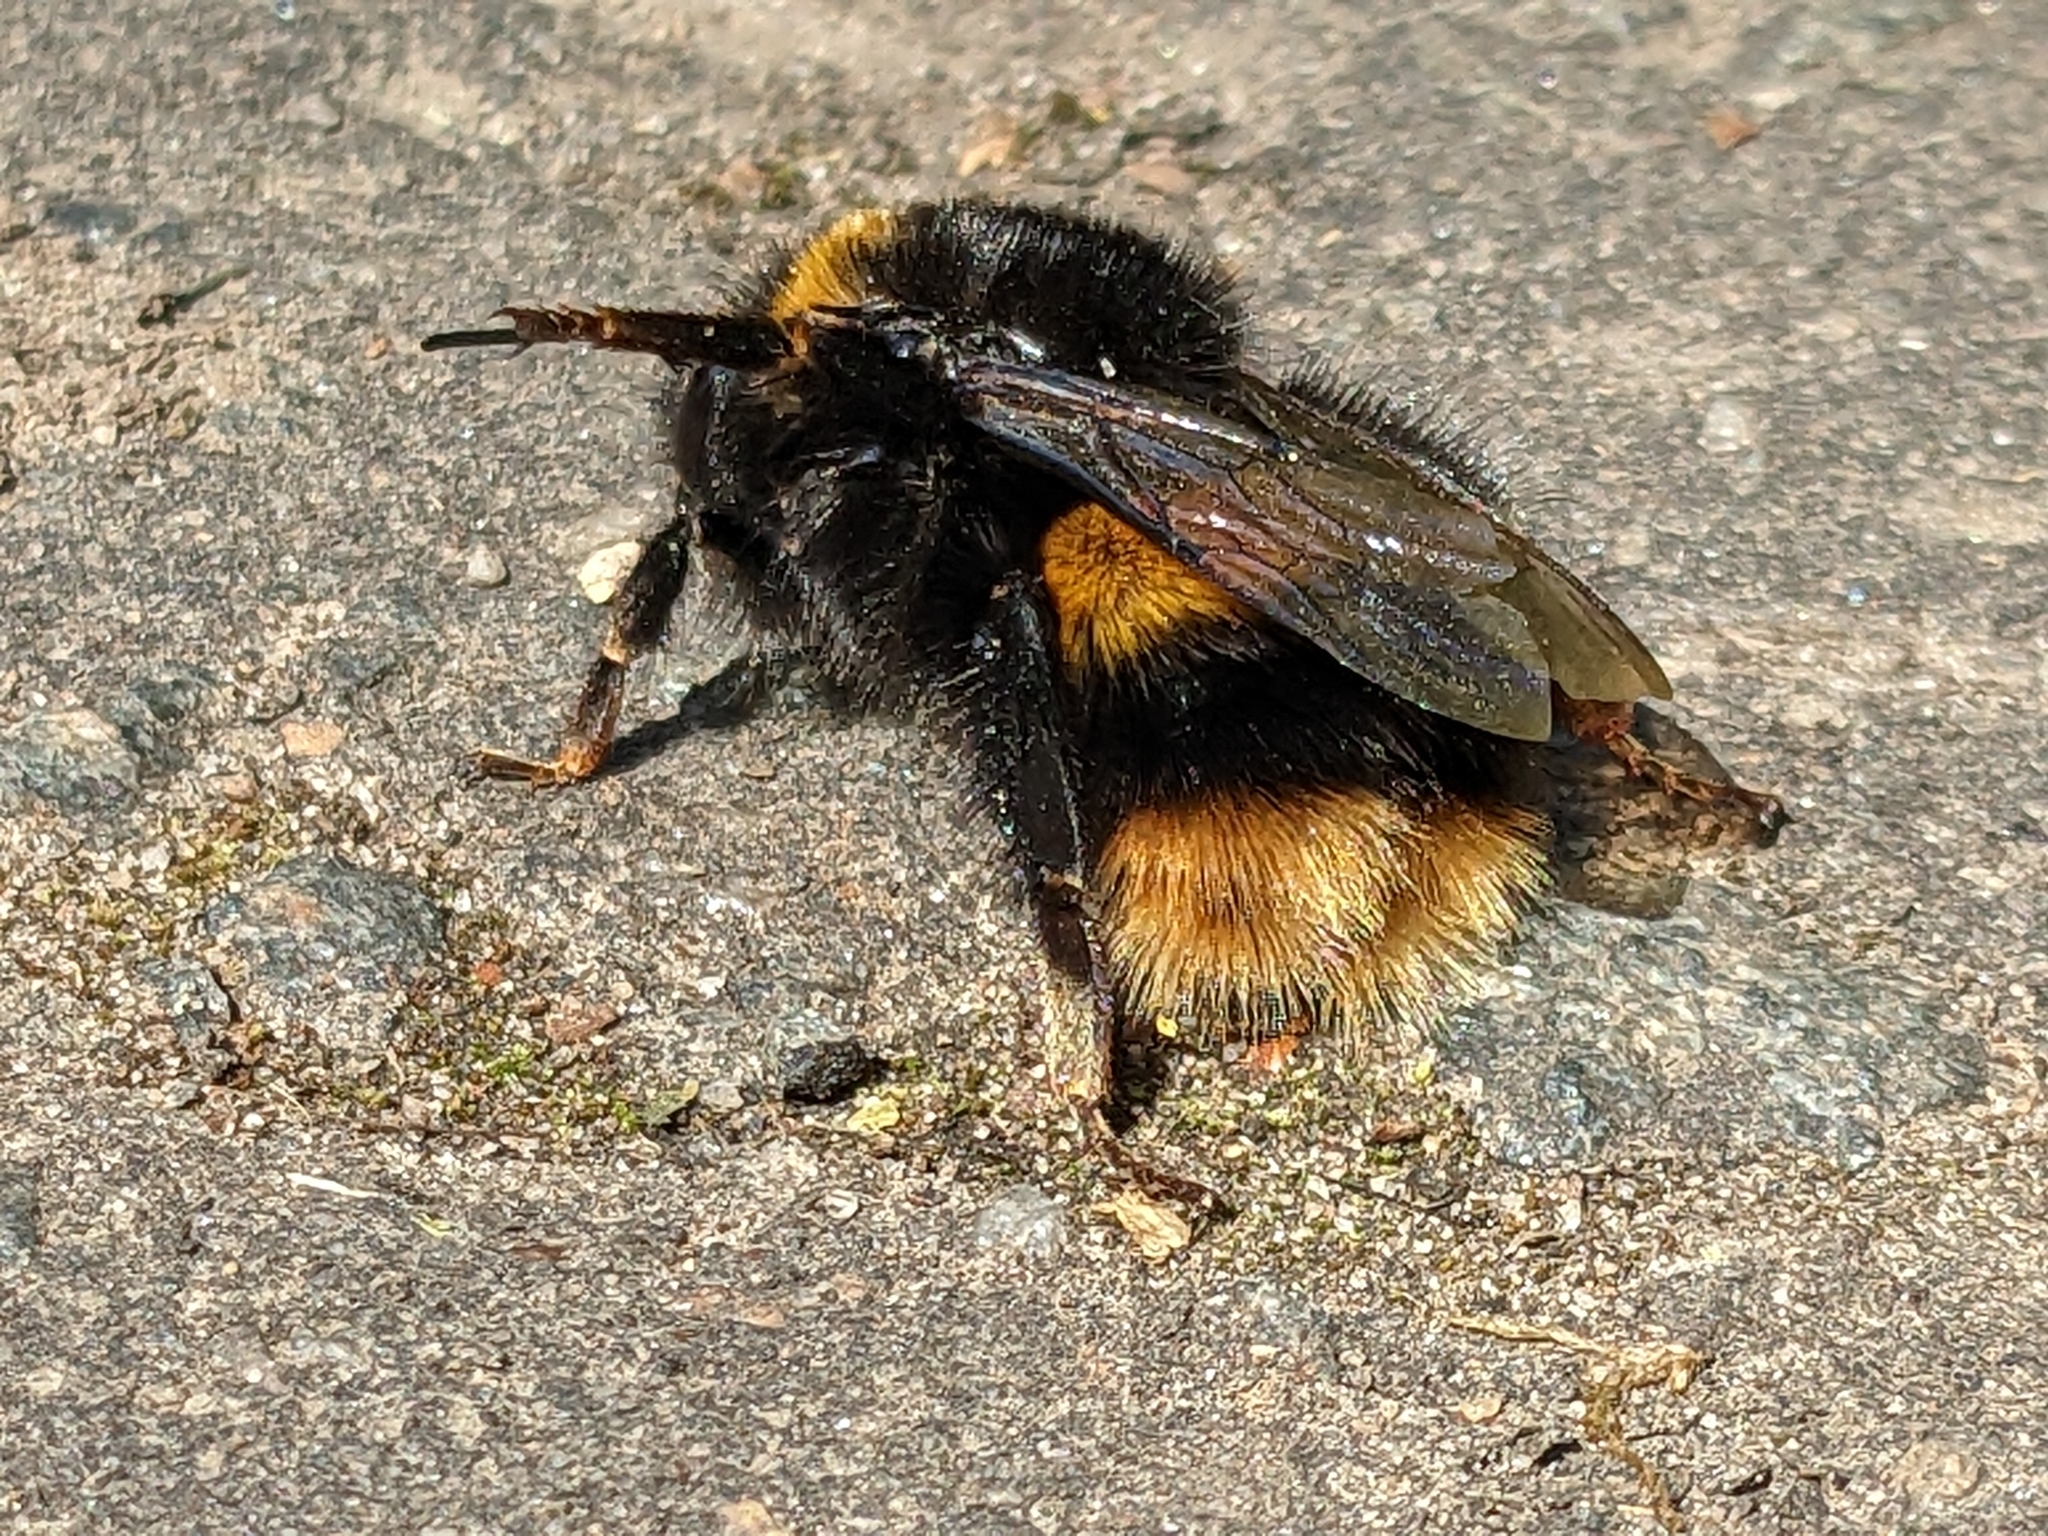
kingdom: Animalia
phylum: Arthropoda
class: Insecta
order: Hymenoptera
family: Apidae
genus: Bombus
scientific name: Bombus terrestris
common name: Buff-tailed bumblebee
